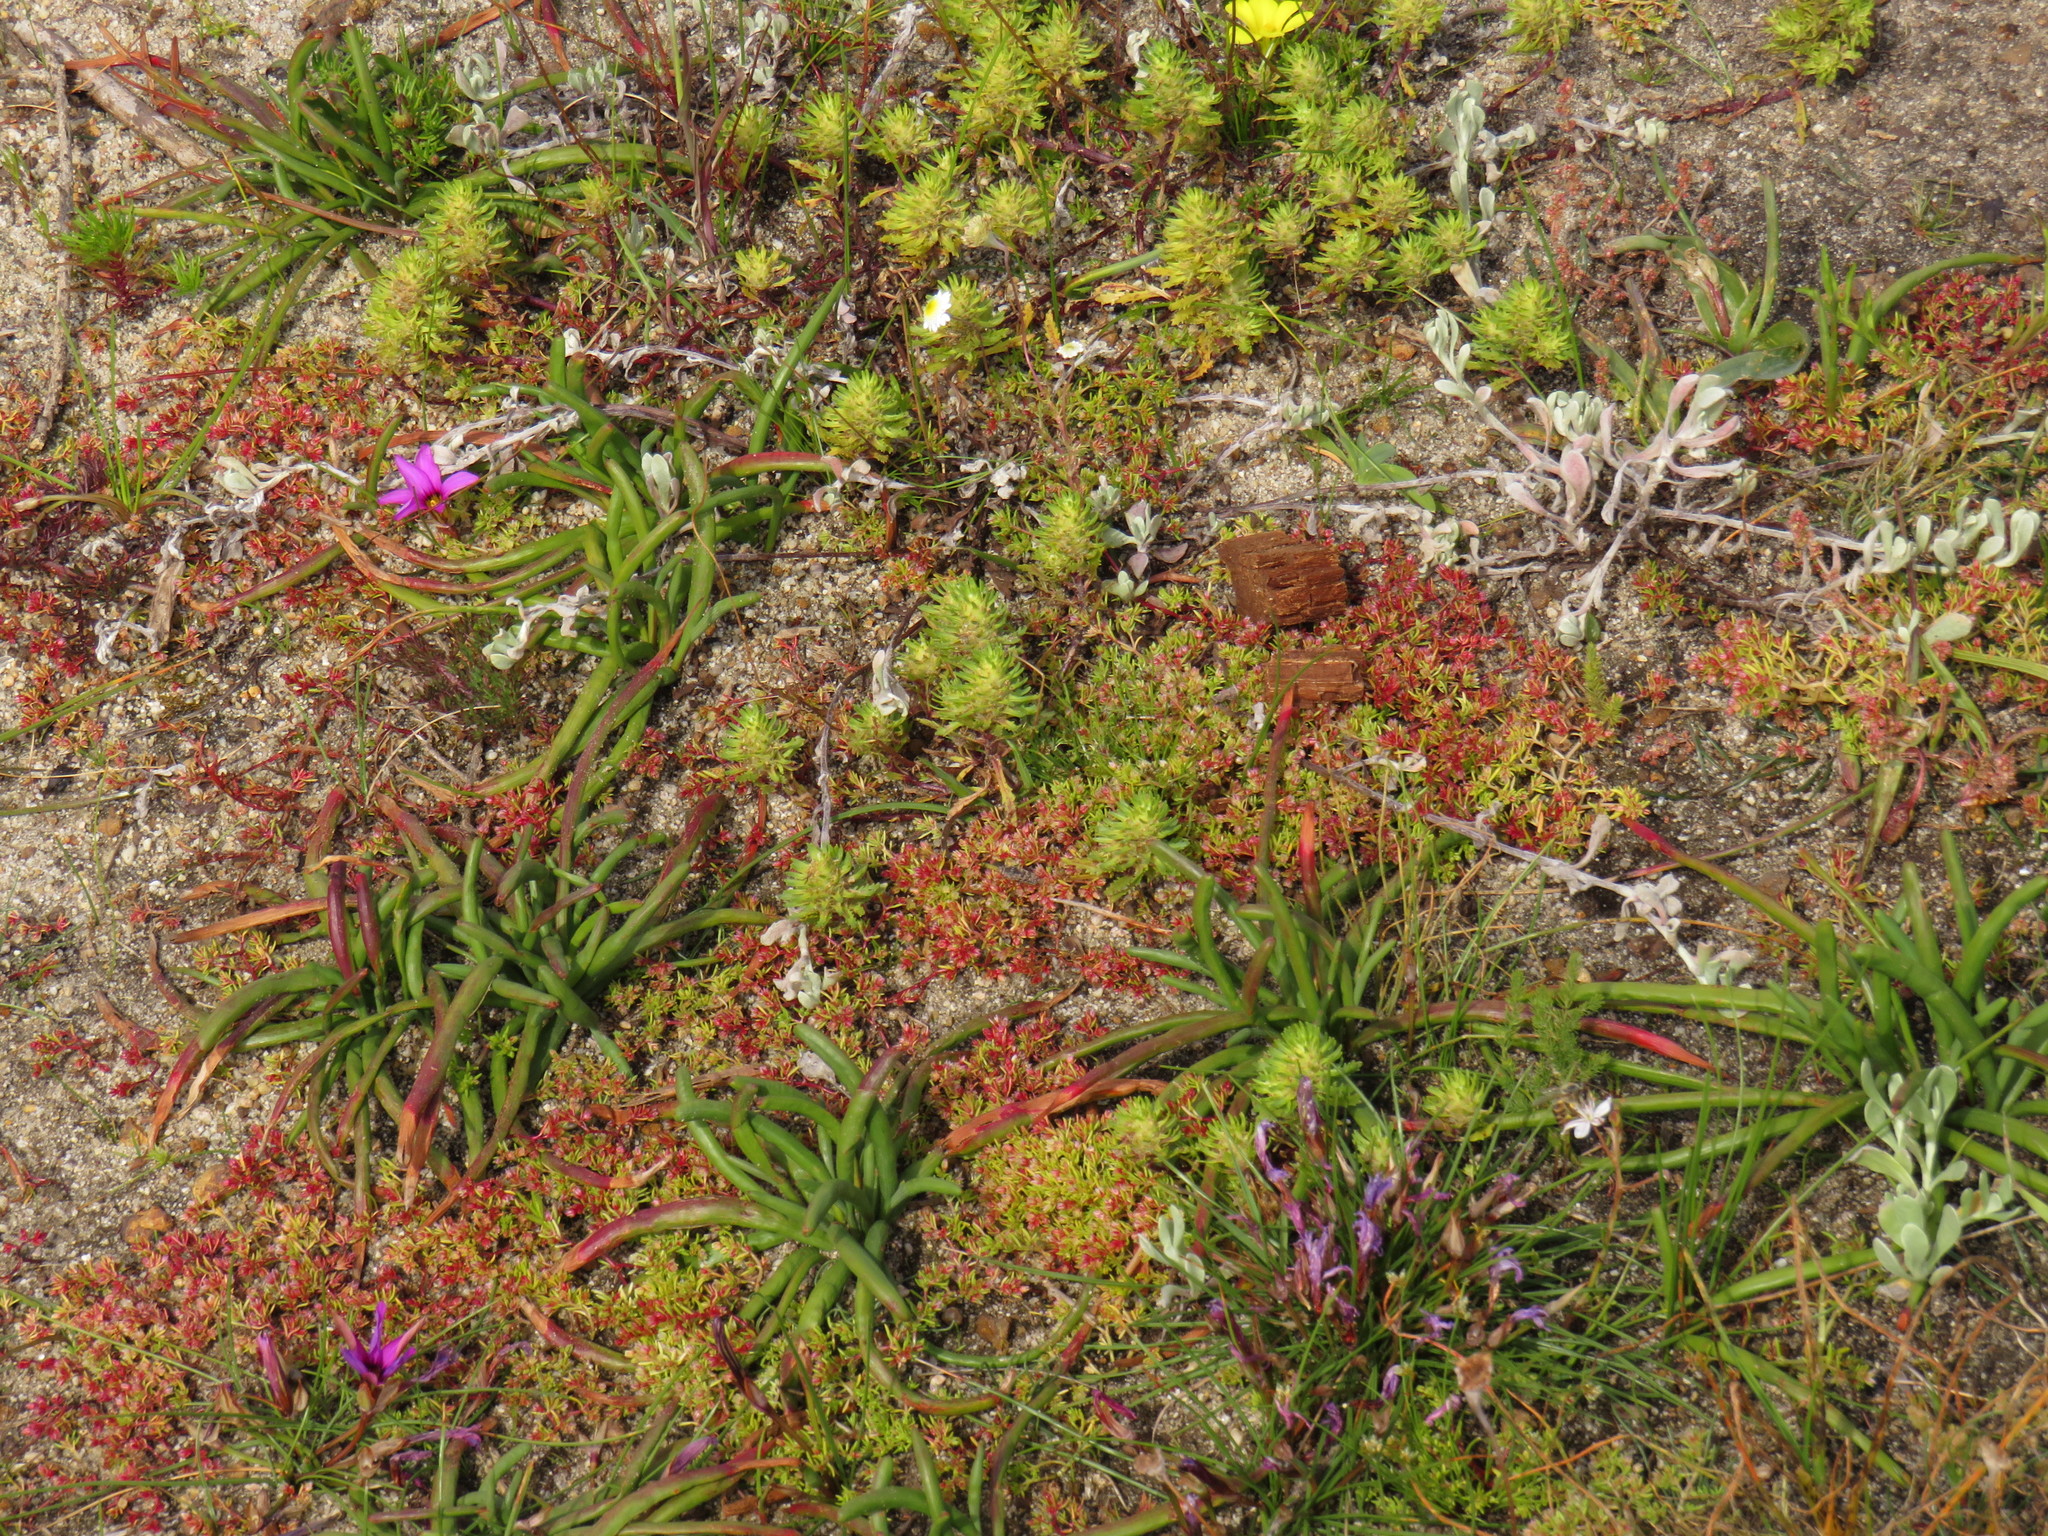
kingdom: Plantae
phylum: Tracheophyta
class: Liliopsida
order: Asparagales
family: Iridaceae
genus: Micranthus
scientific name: Micranthus tubulosus
